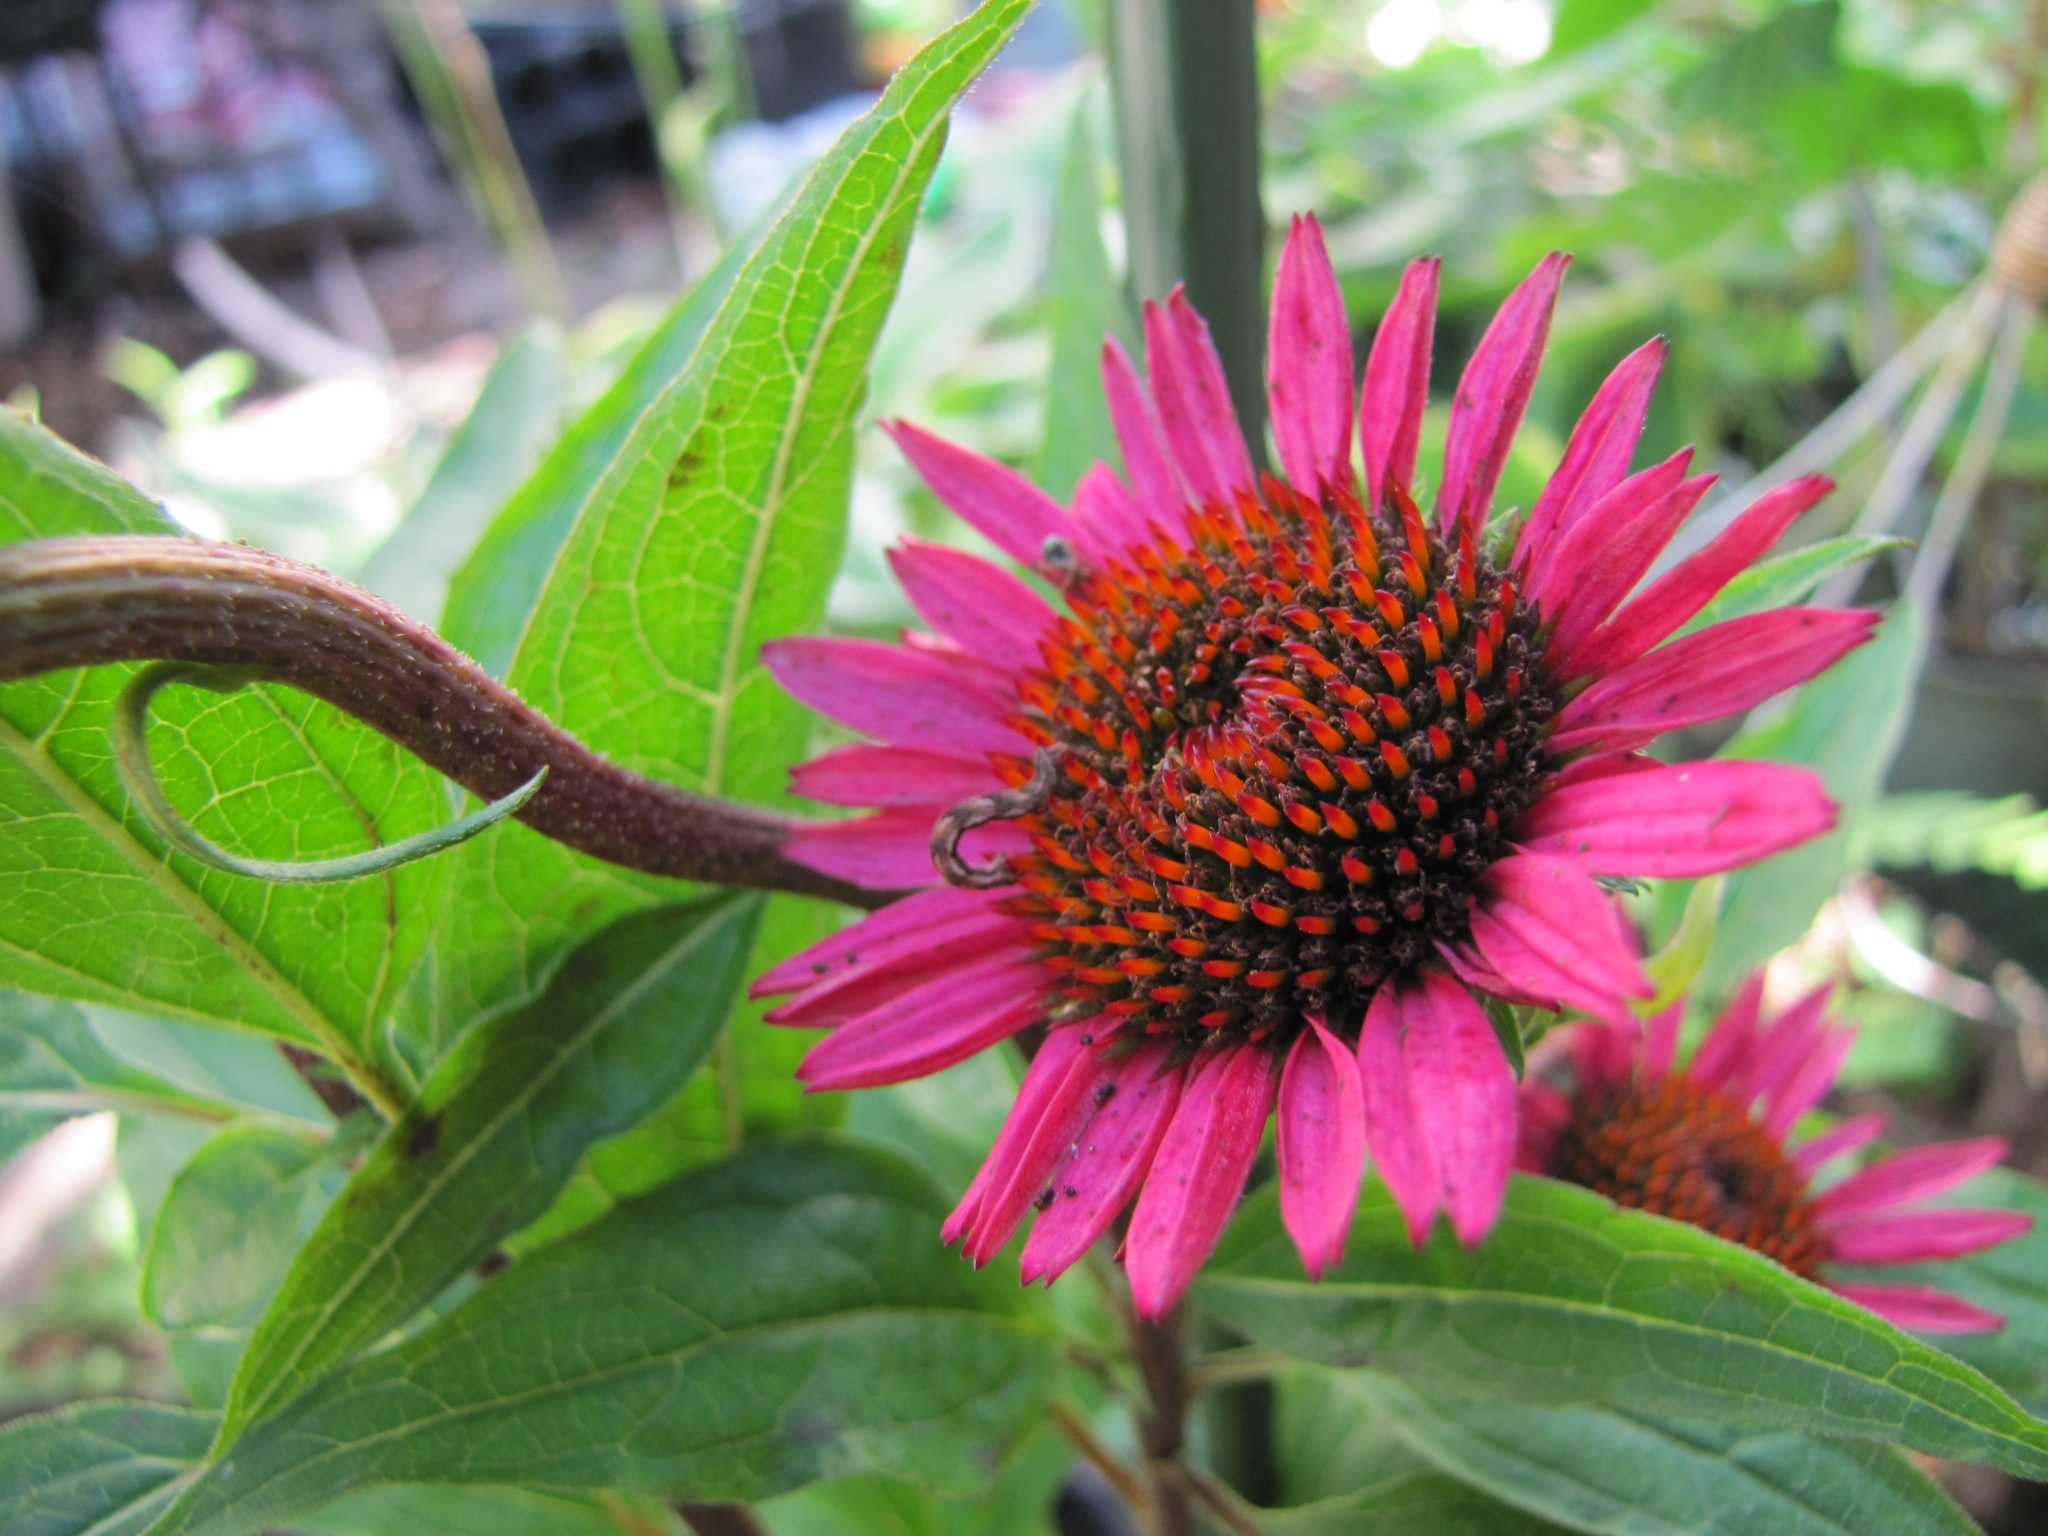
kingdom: Animalia
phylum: Arthropoda
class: Insecta
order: Lepidoptera
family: Geometridae
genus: Eupithecia
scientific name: Eupithecia miserulata
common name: Common eupithecia
